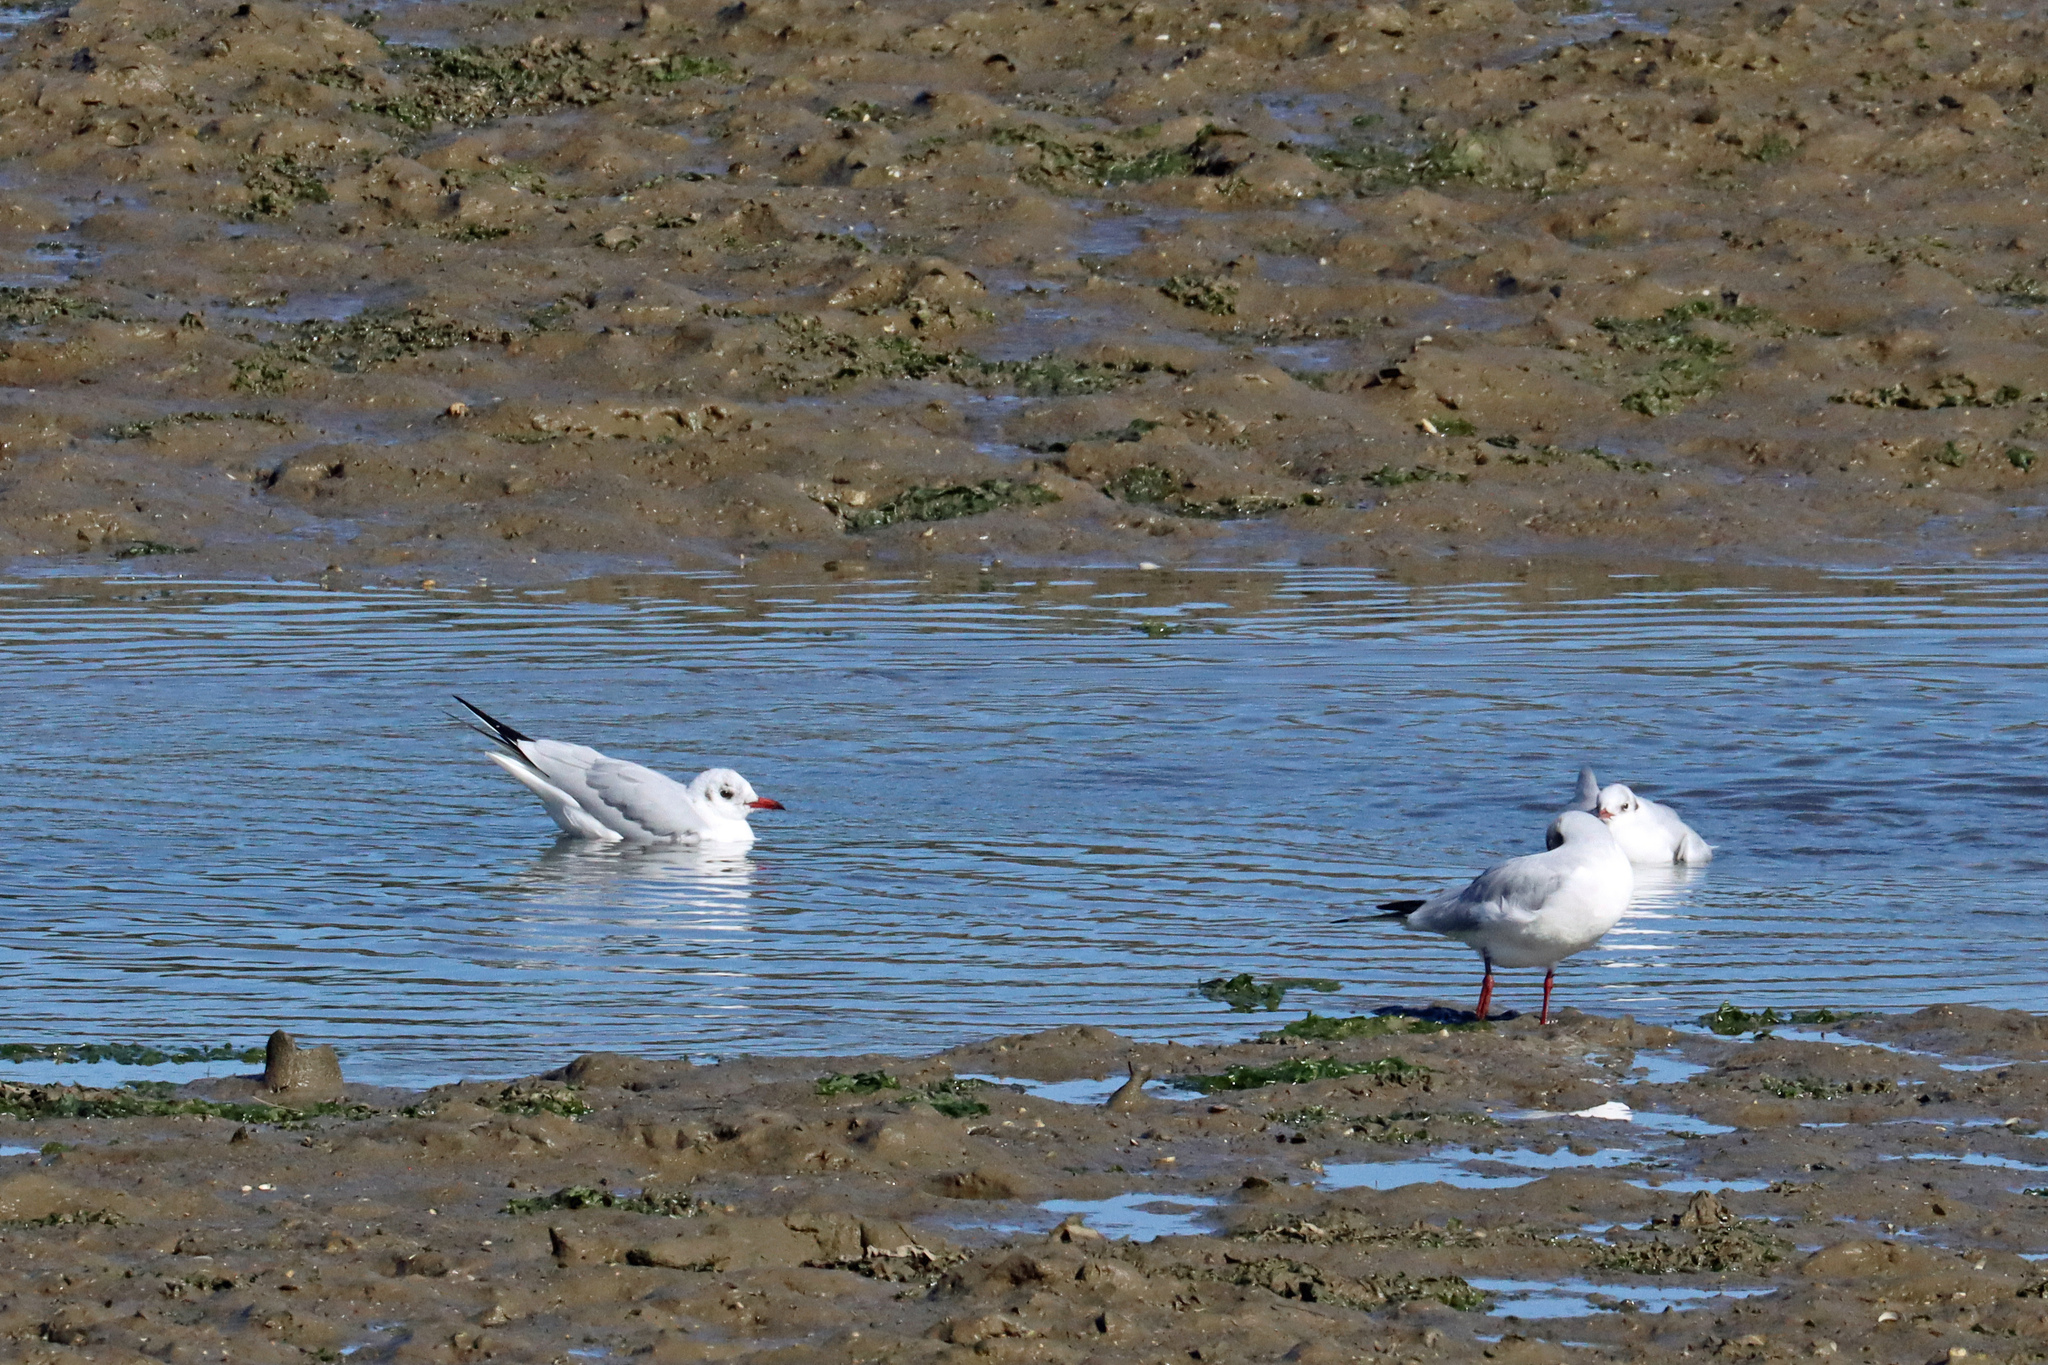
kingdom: Animalia
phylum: Chordata
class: Aves
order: Charadriiformes
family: Laridae
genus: Chroicocephalus
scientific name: Chroicocephalus ridibundus
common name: Black-headed gull
